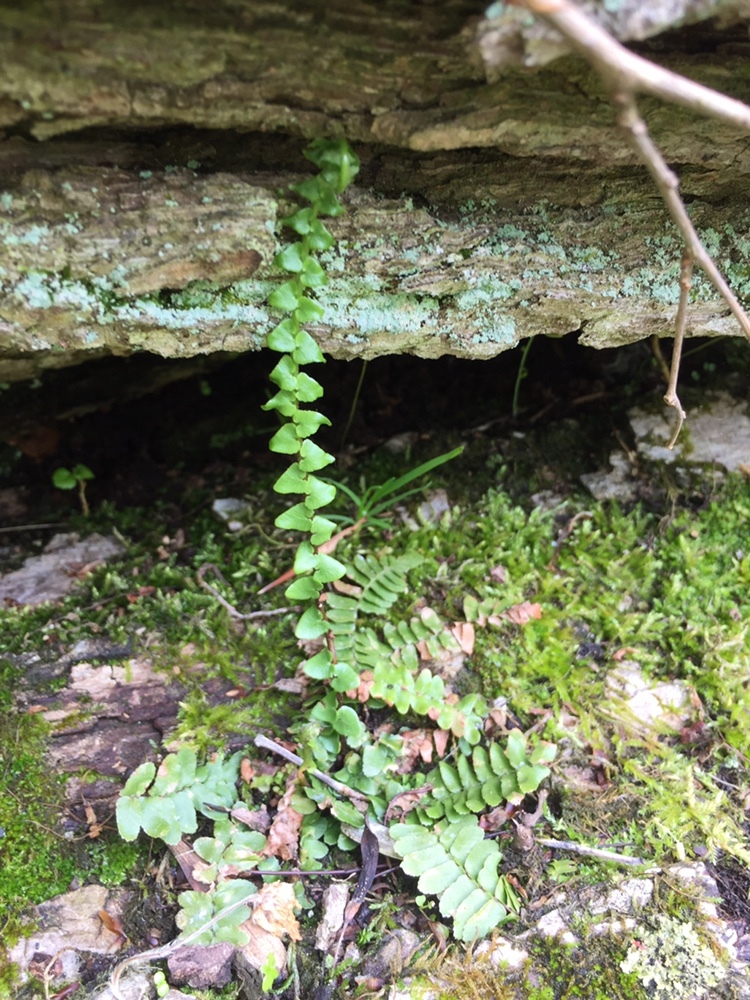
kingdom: Plantae
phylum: Tracheophyta
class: Polypodiopsida
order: Polypodiales
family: Aspleniaceae
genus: Asplenium
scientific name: Asplenium platyneuron
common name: Ebony spleenwort
